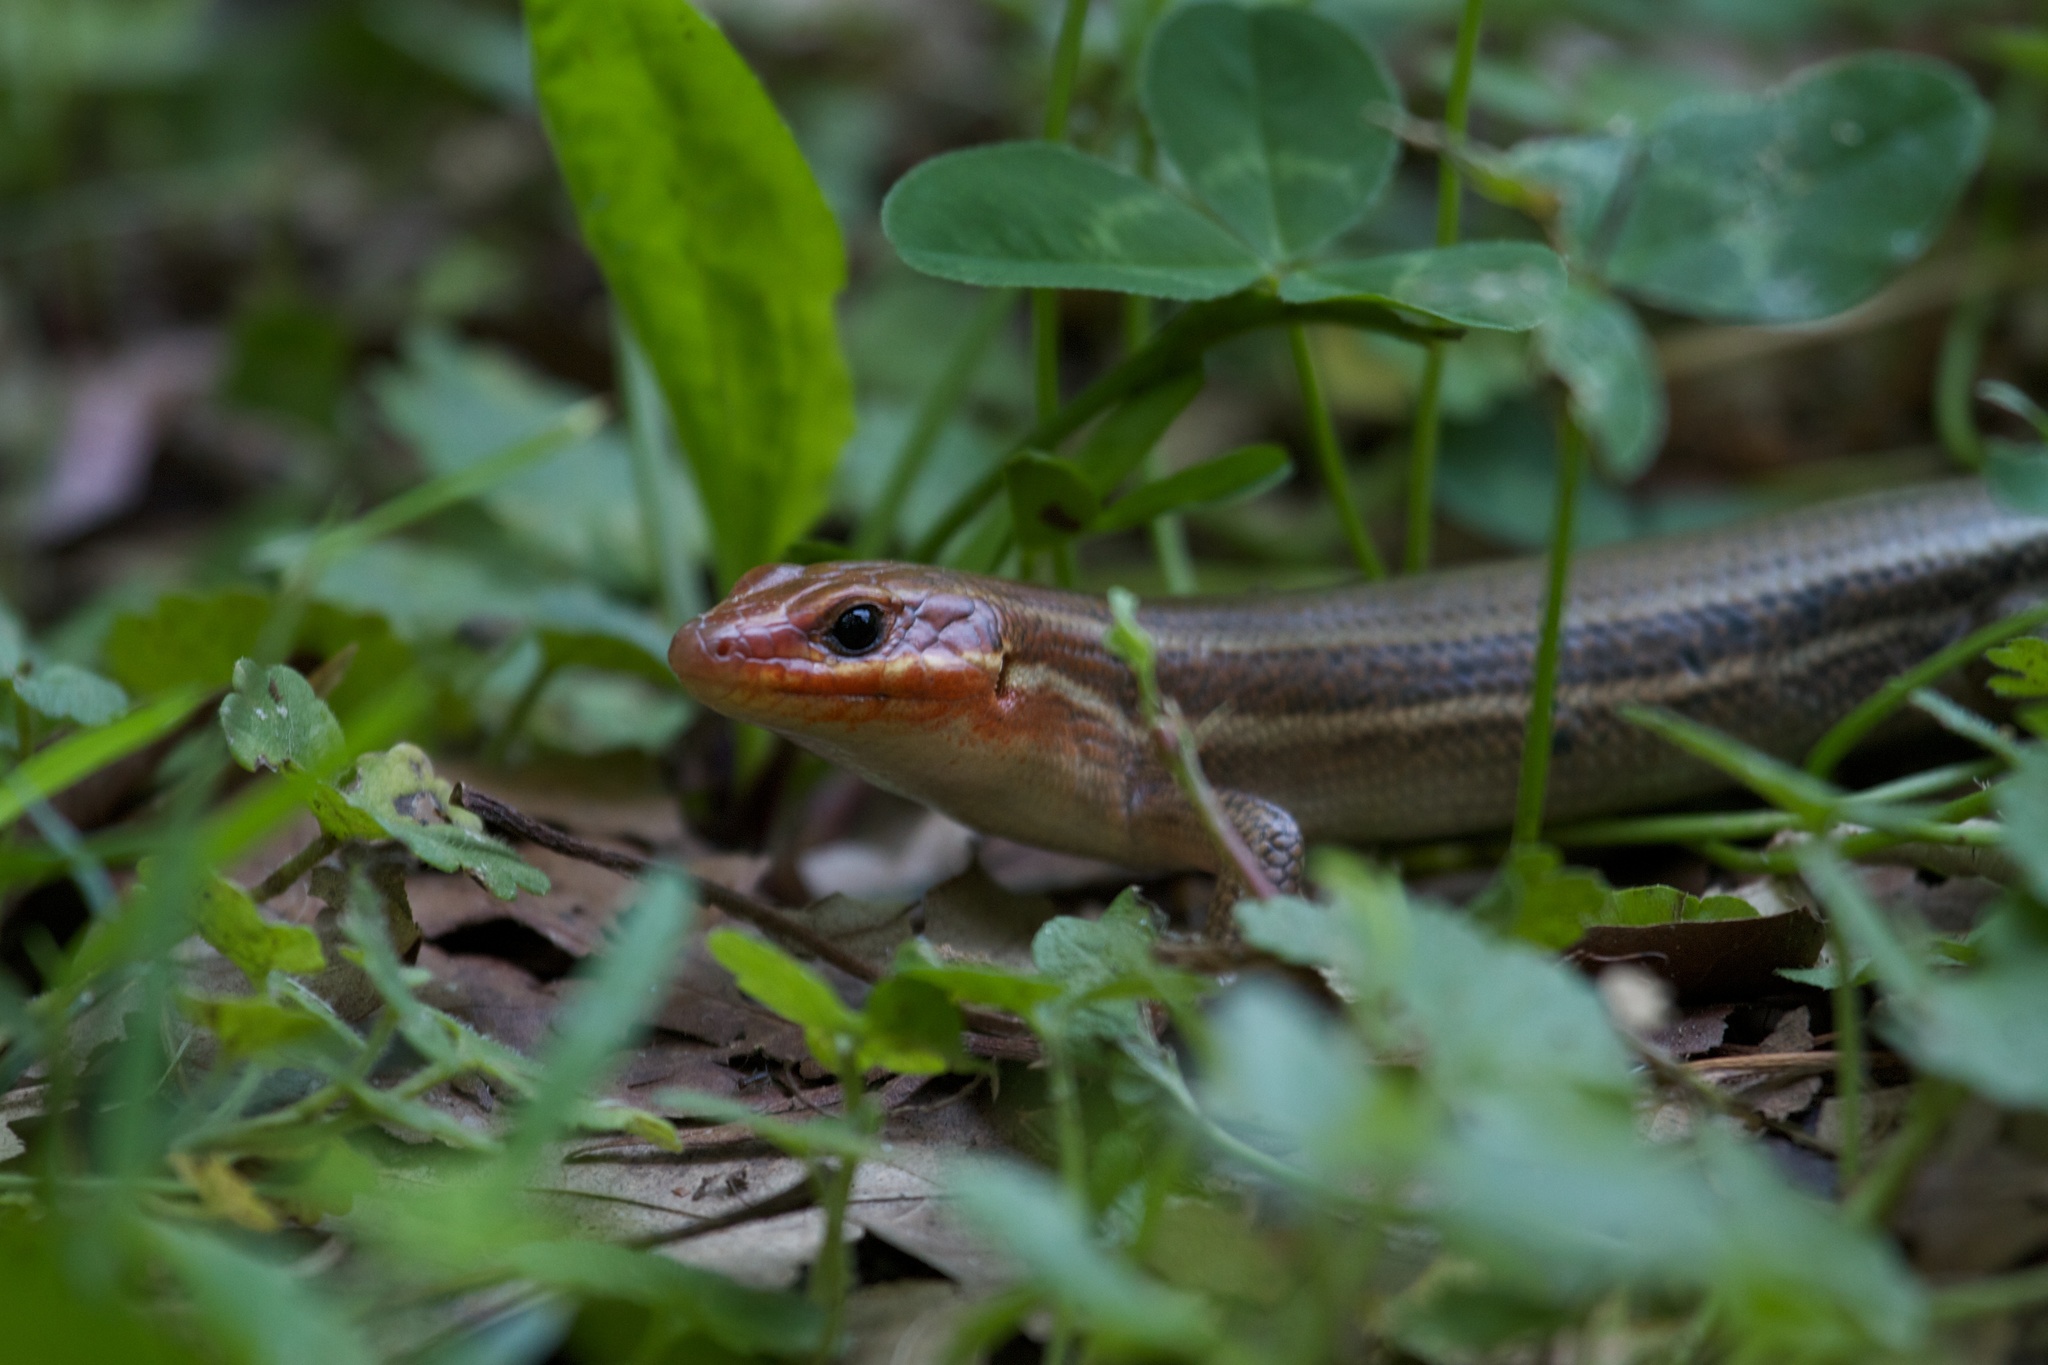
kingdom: Animalia
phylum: Chordata
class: Squamata
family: Scincidae
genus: Plestiodon
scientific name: Plestiodon laticeps
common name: Broadhead skink
